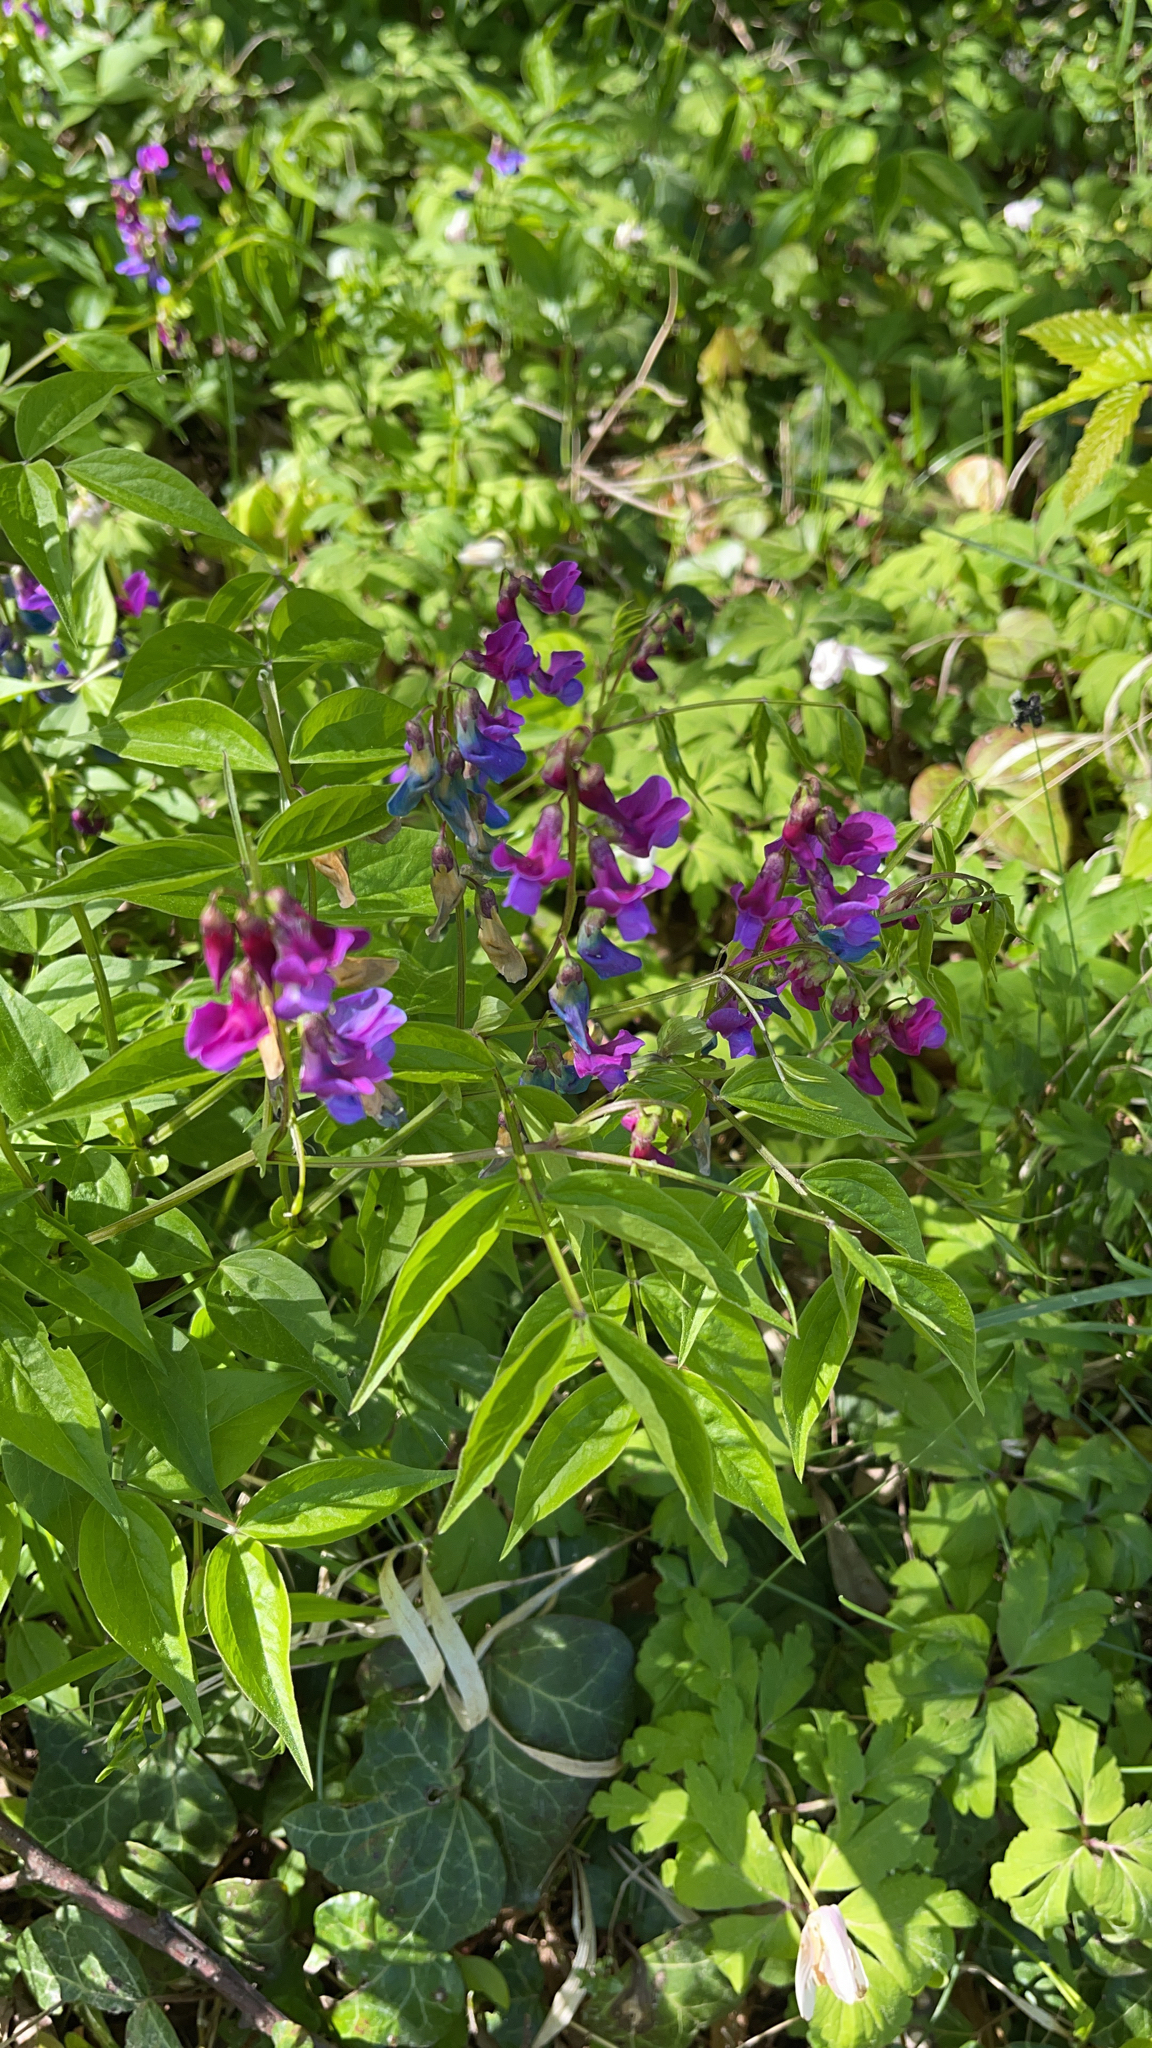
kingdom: Plantae
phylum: Tracheophyta
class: Magnoliopsida
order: Fabales
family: Fabaceae
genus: Lathyrus
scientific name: Lathyrus vernus
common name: Spring pea
